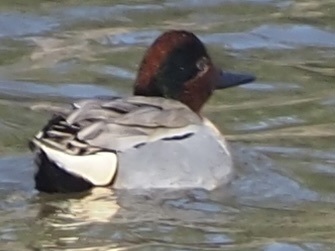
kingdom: Animalia
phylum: Chordata
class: Aves
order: Anseriformes
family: Anatidae
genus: Anas
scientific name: Anas crecca
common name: Eurasian teal
